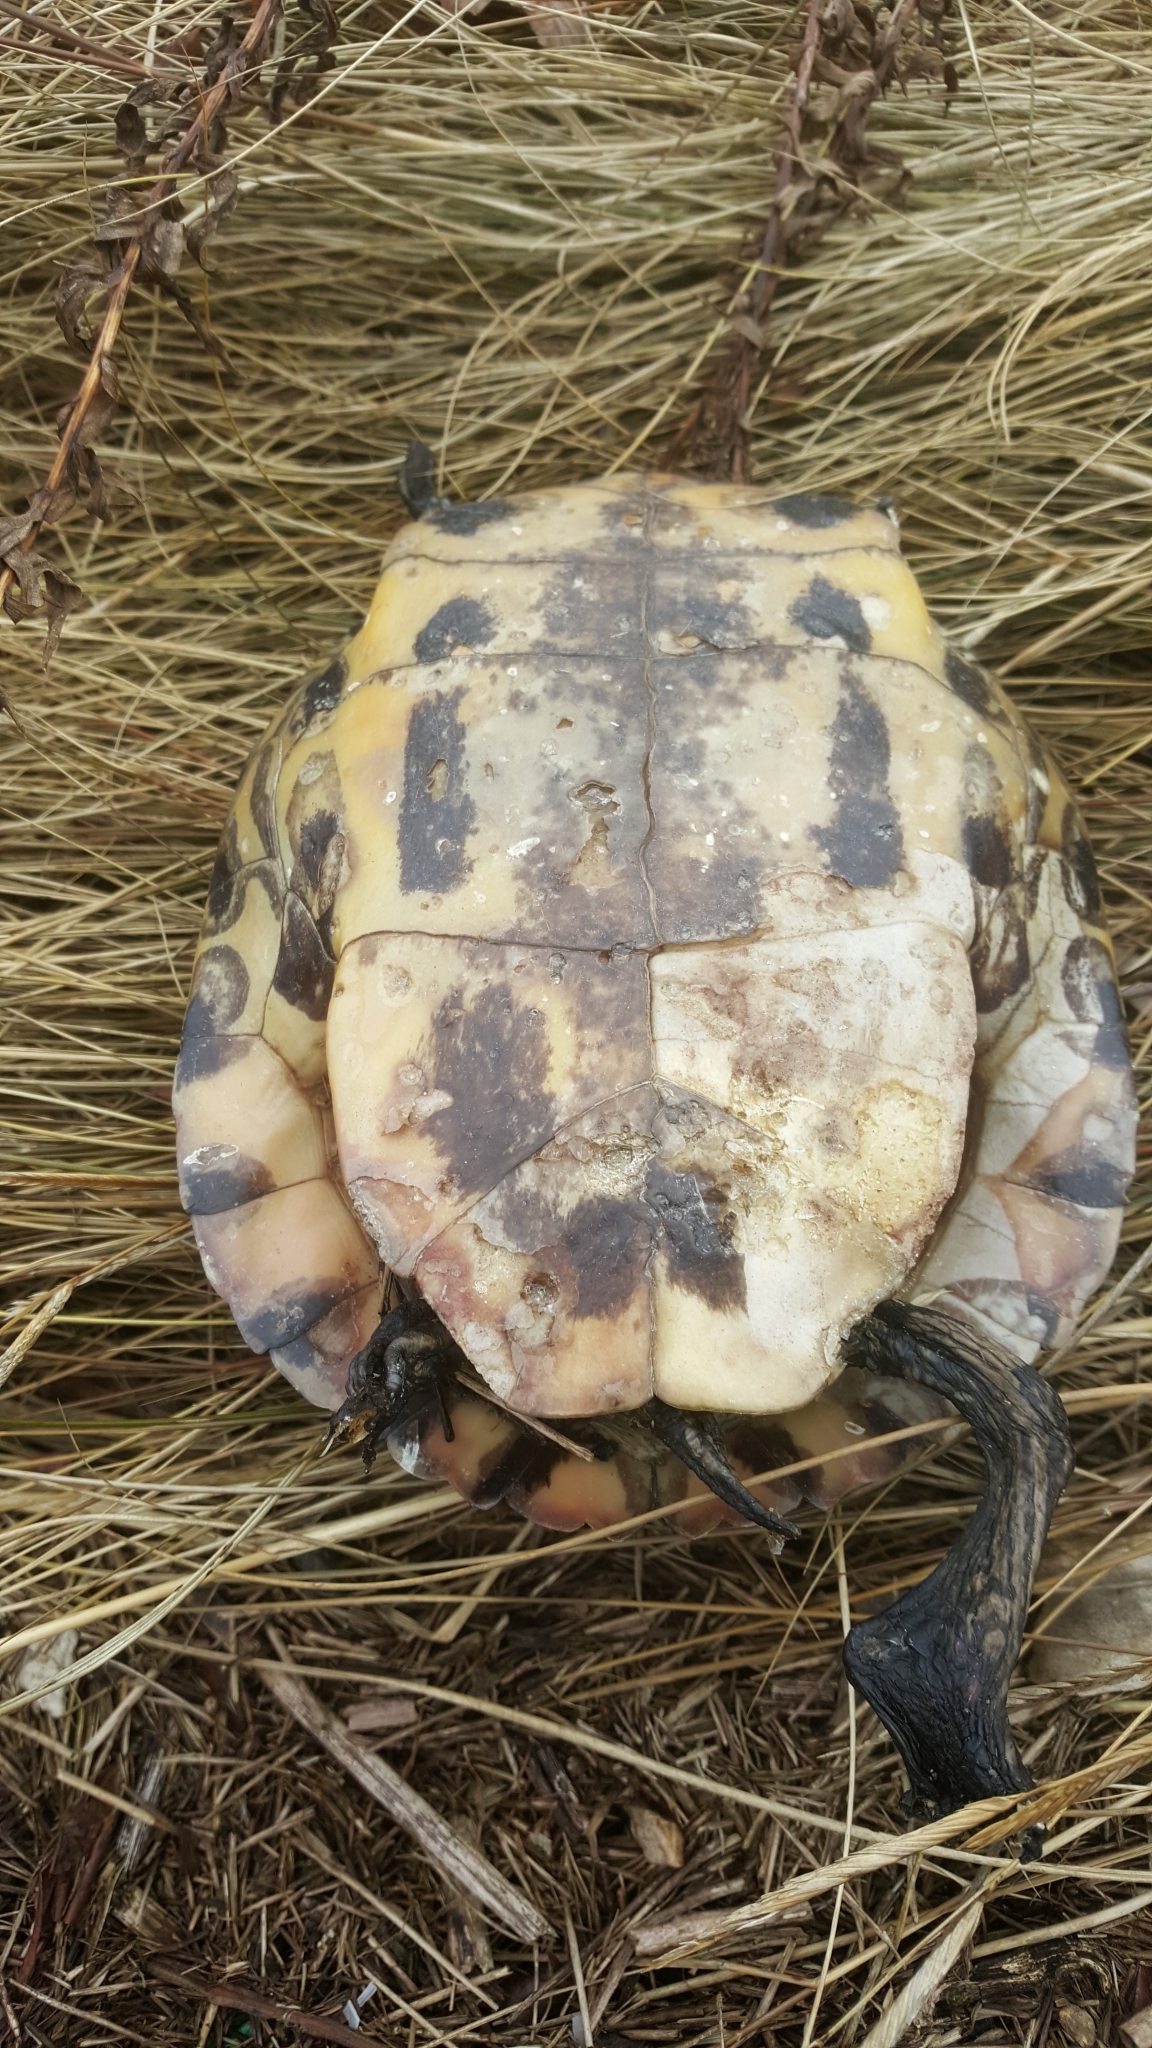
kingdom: Animalia
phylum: Chordata
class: Testudines
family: Emydidae
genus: Trachemys
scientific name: Trachemys scripta
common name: Slider
